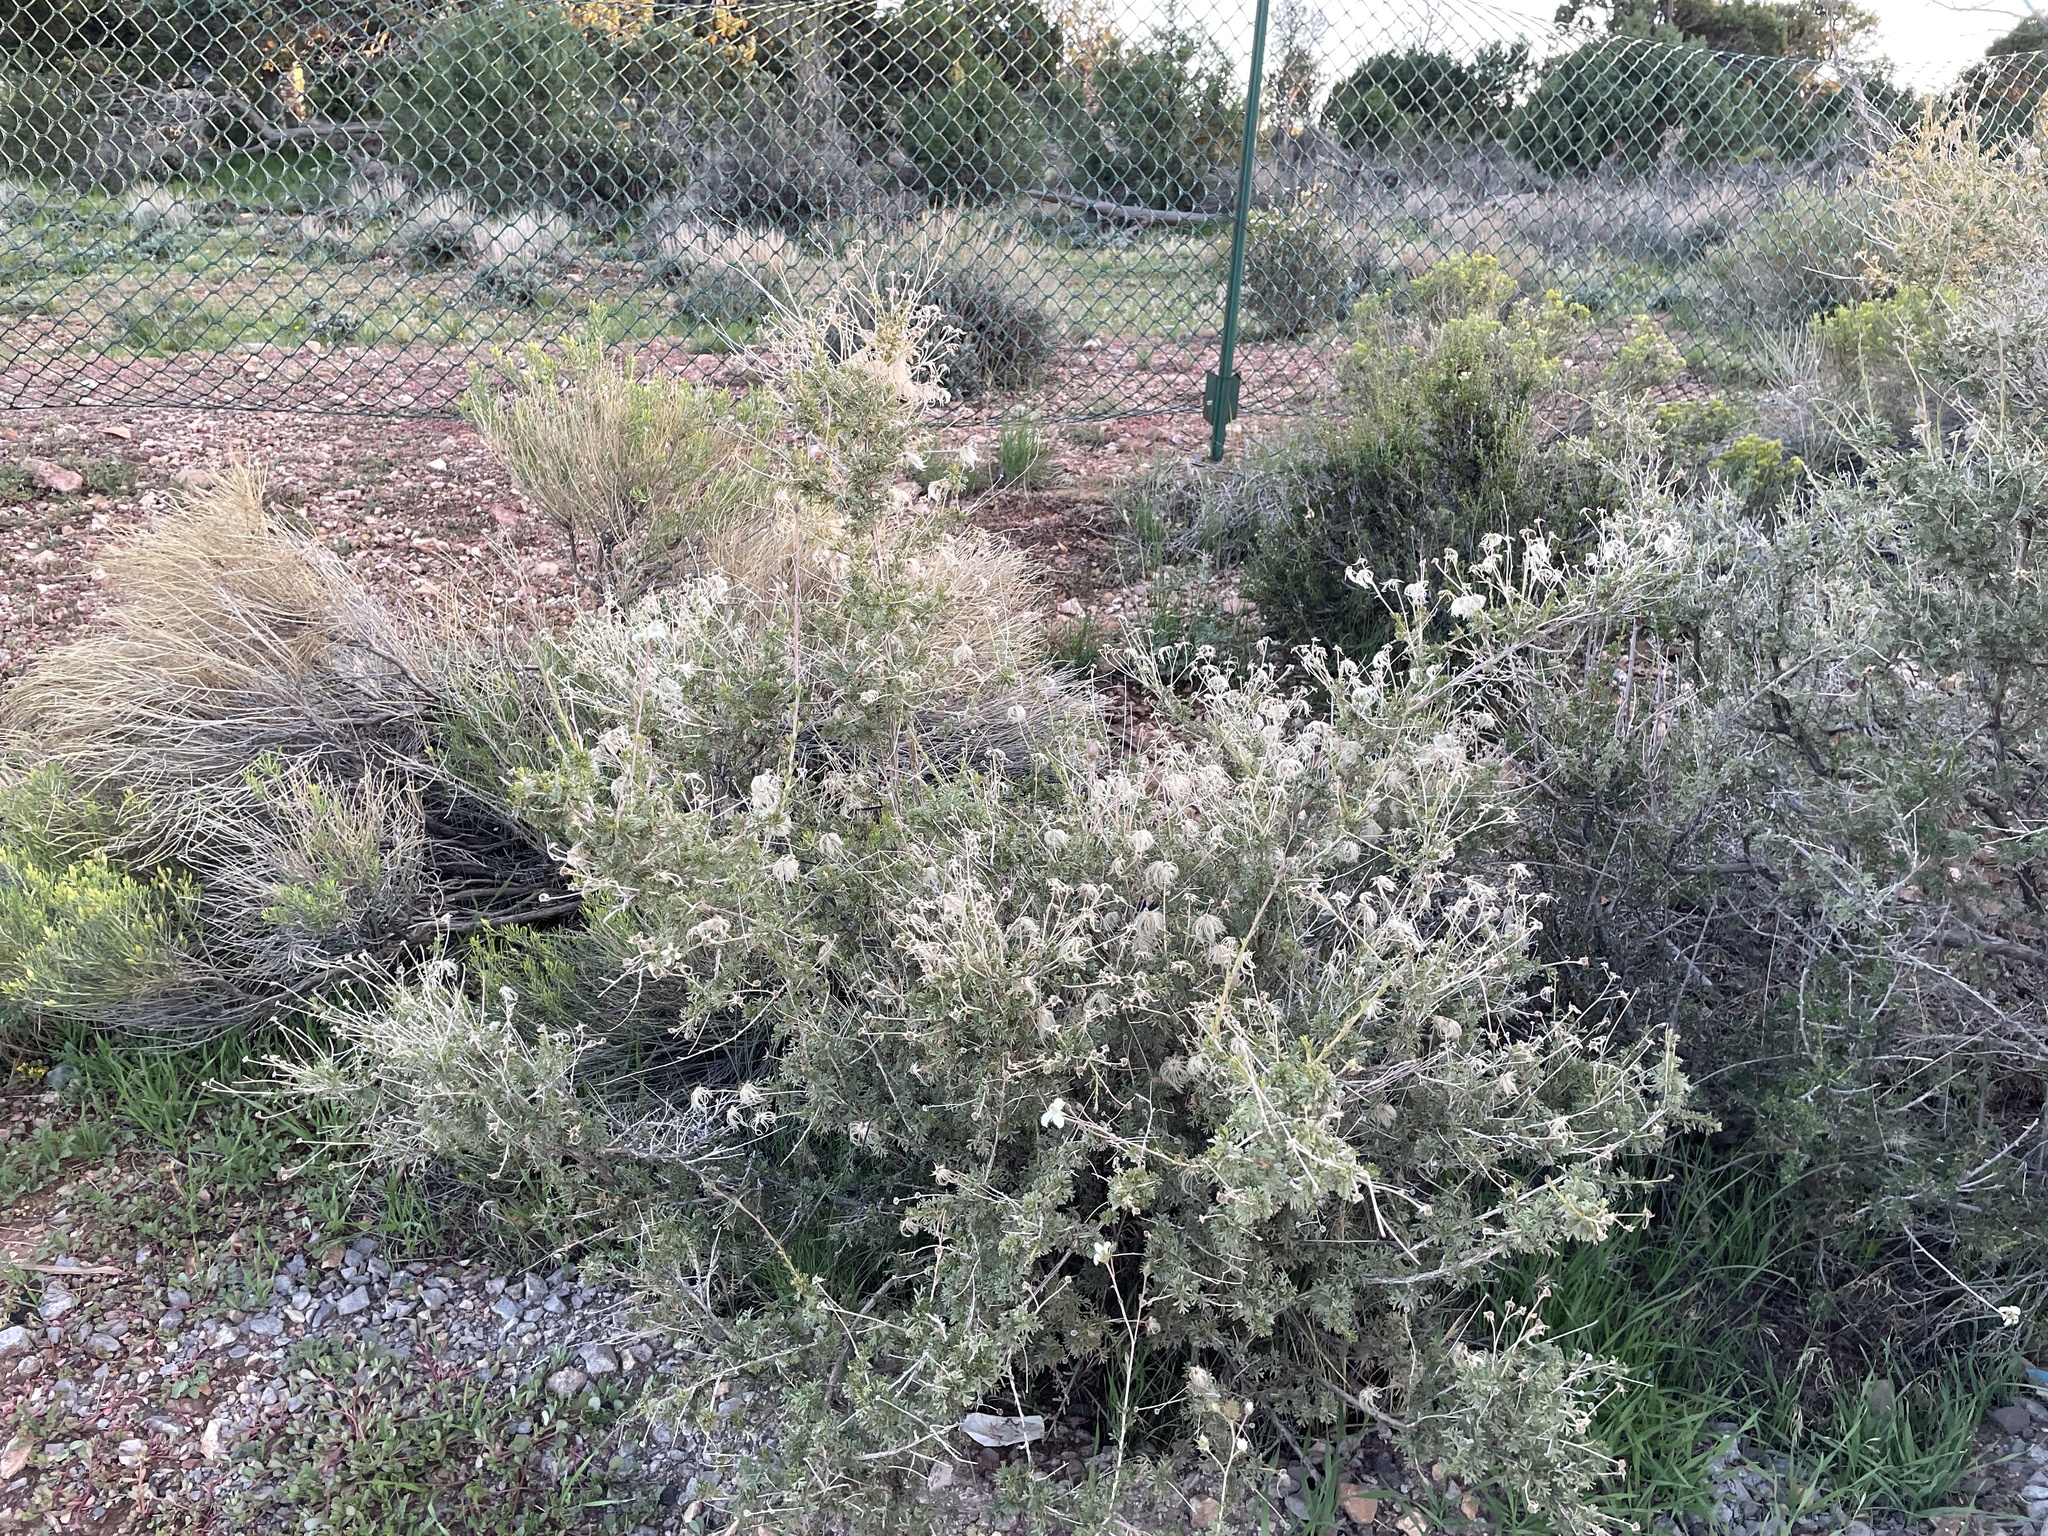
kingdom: Plantae
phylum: Tracheophyta
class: Magnoliopsida
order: Rosales
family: Rosaceae
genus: Fallugia
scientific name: Fallugia paradoxa
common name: Apache-plume
